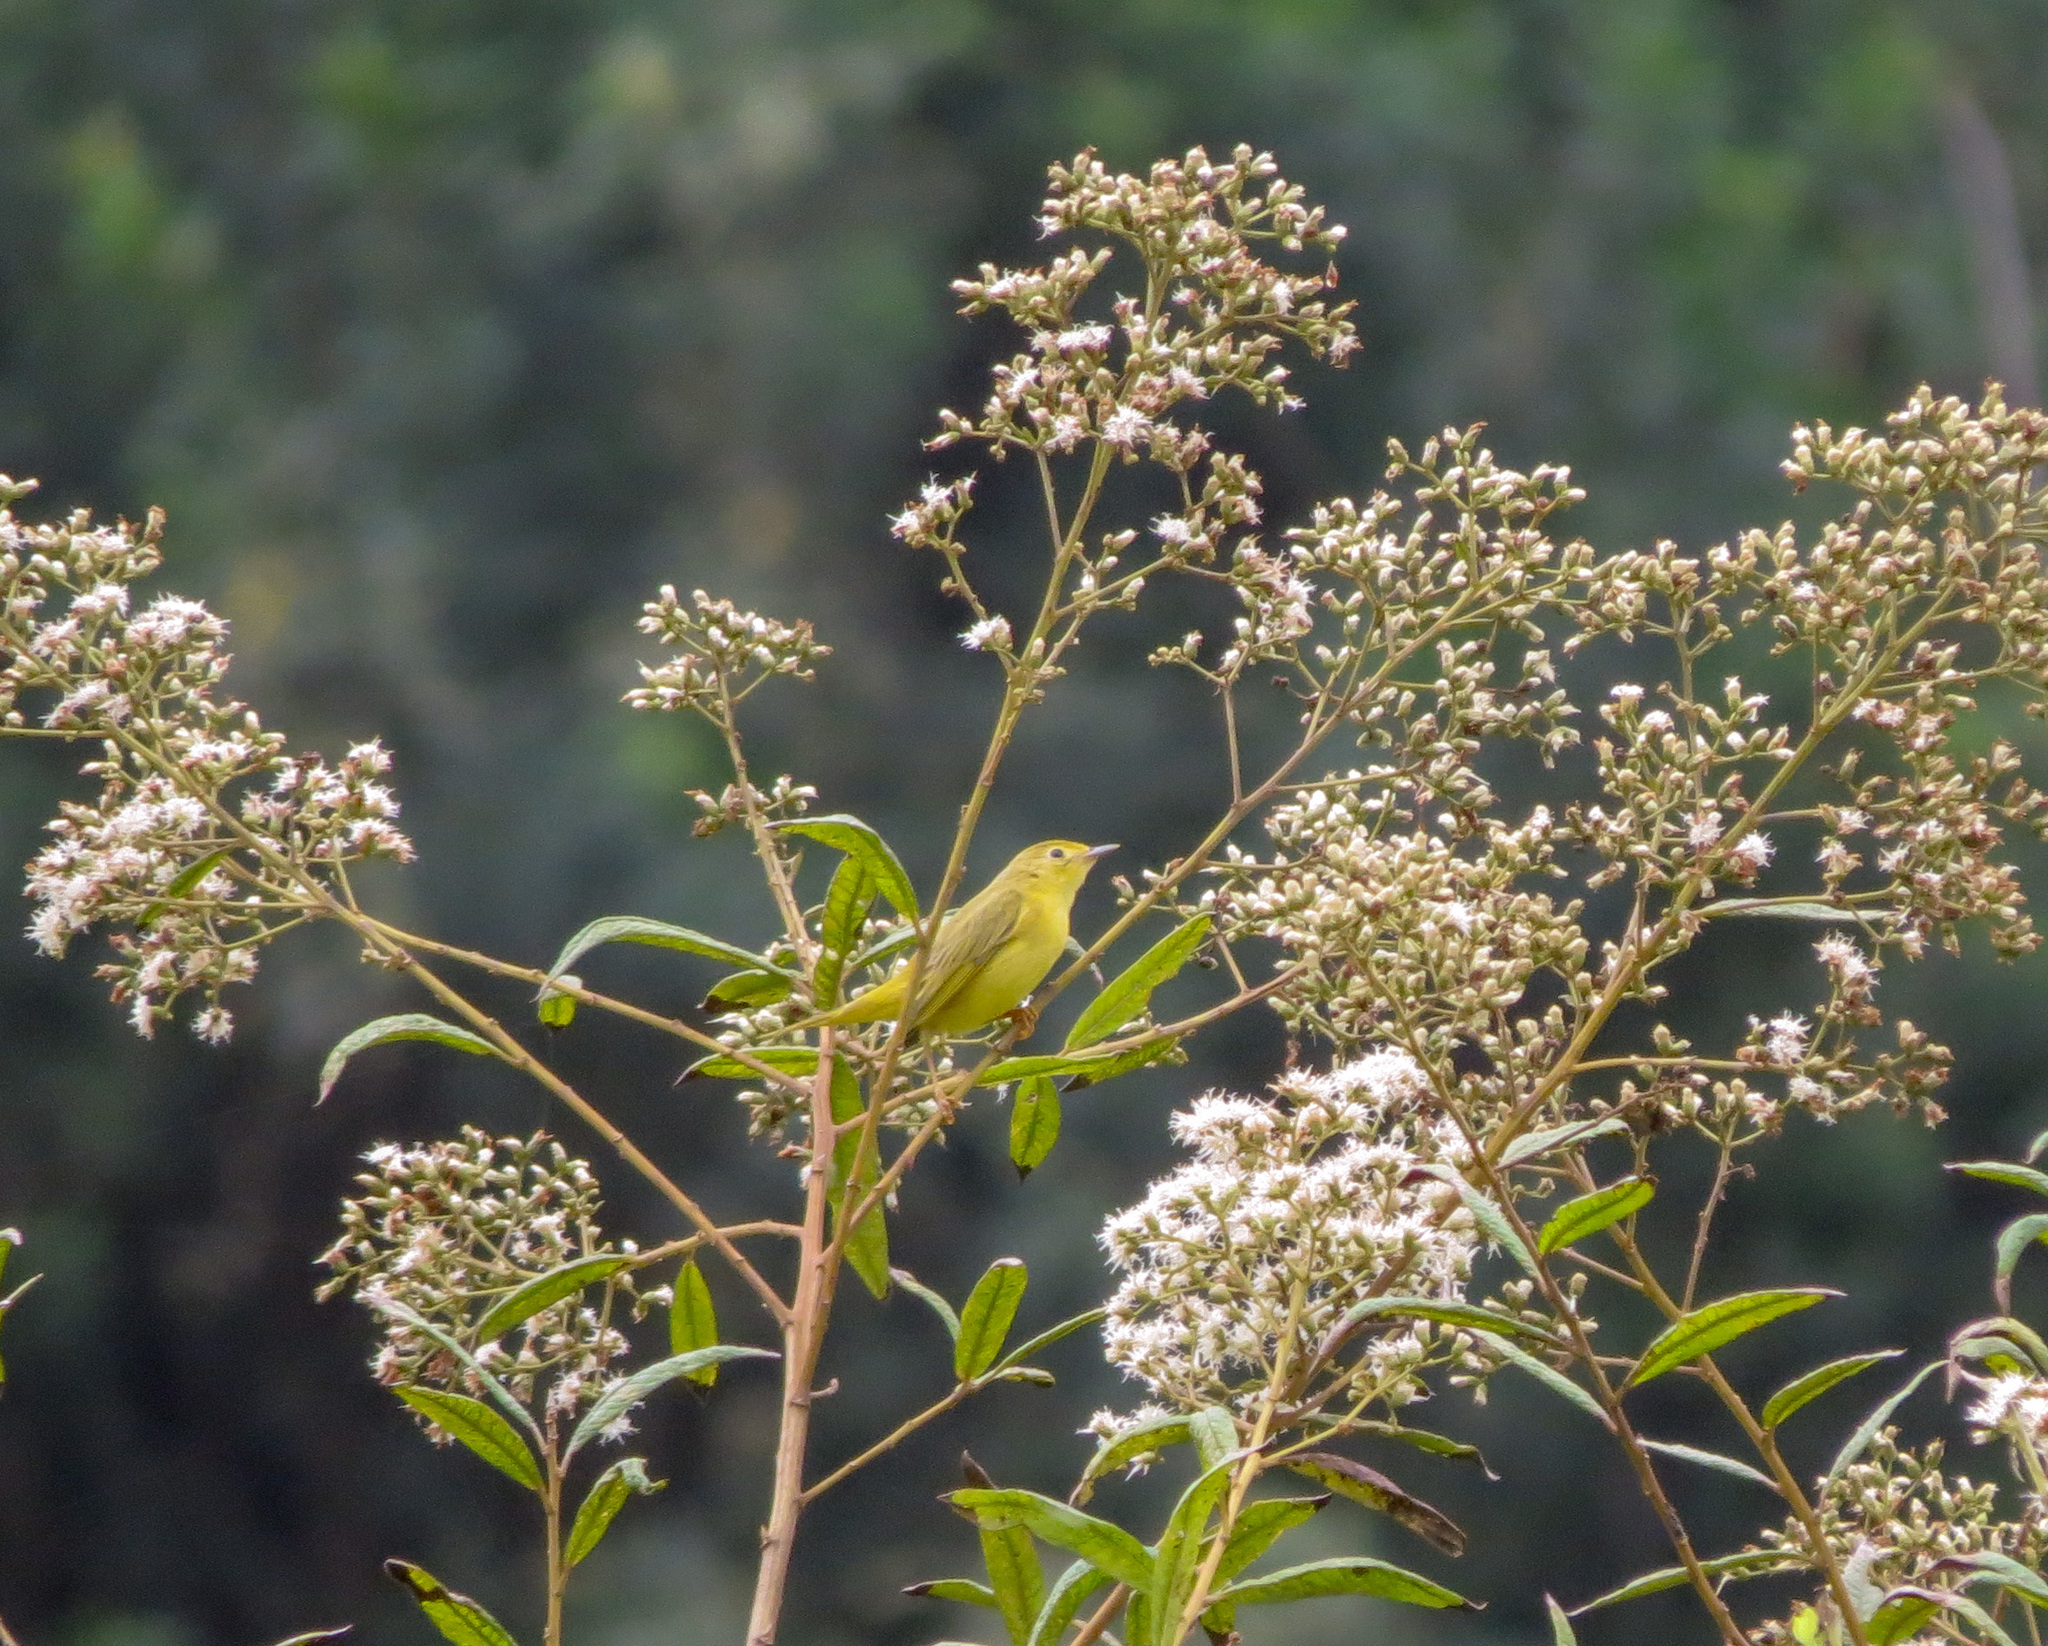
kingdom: Animalia
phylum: Chordata
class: Aves
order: Passeriformes
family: Parulidae
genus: Setophaga
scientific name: Setophaga petechia
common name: Yellow warbler
